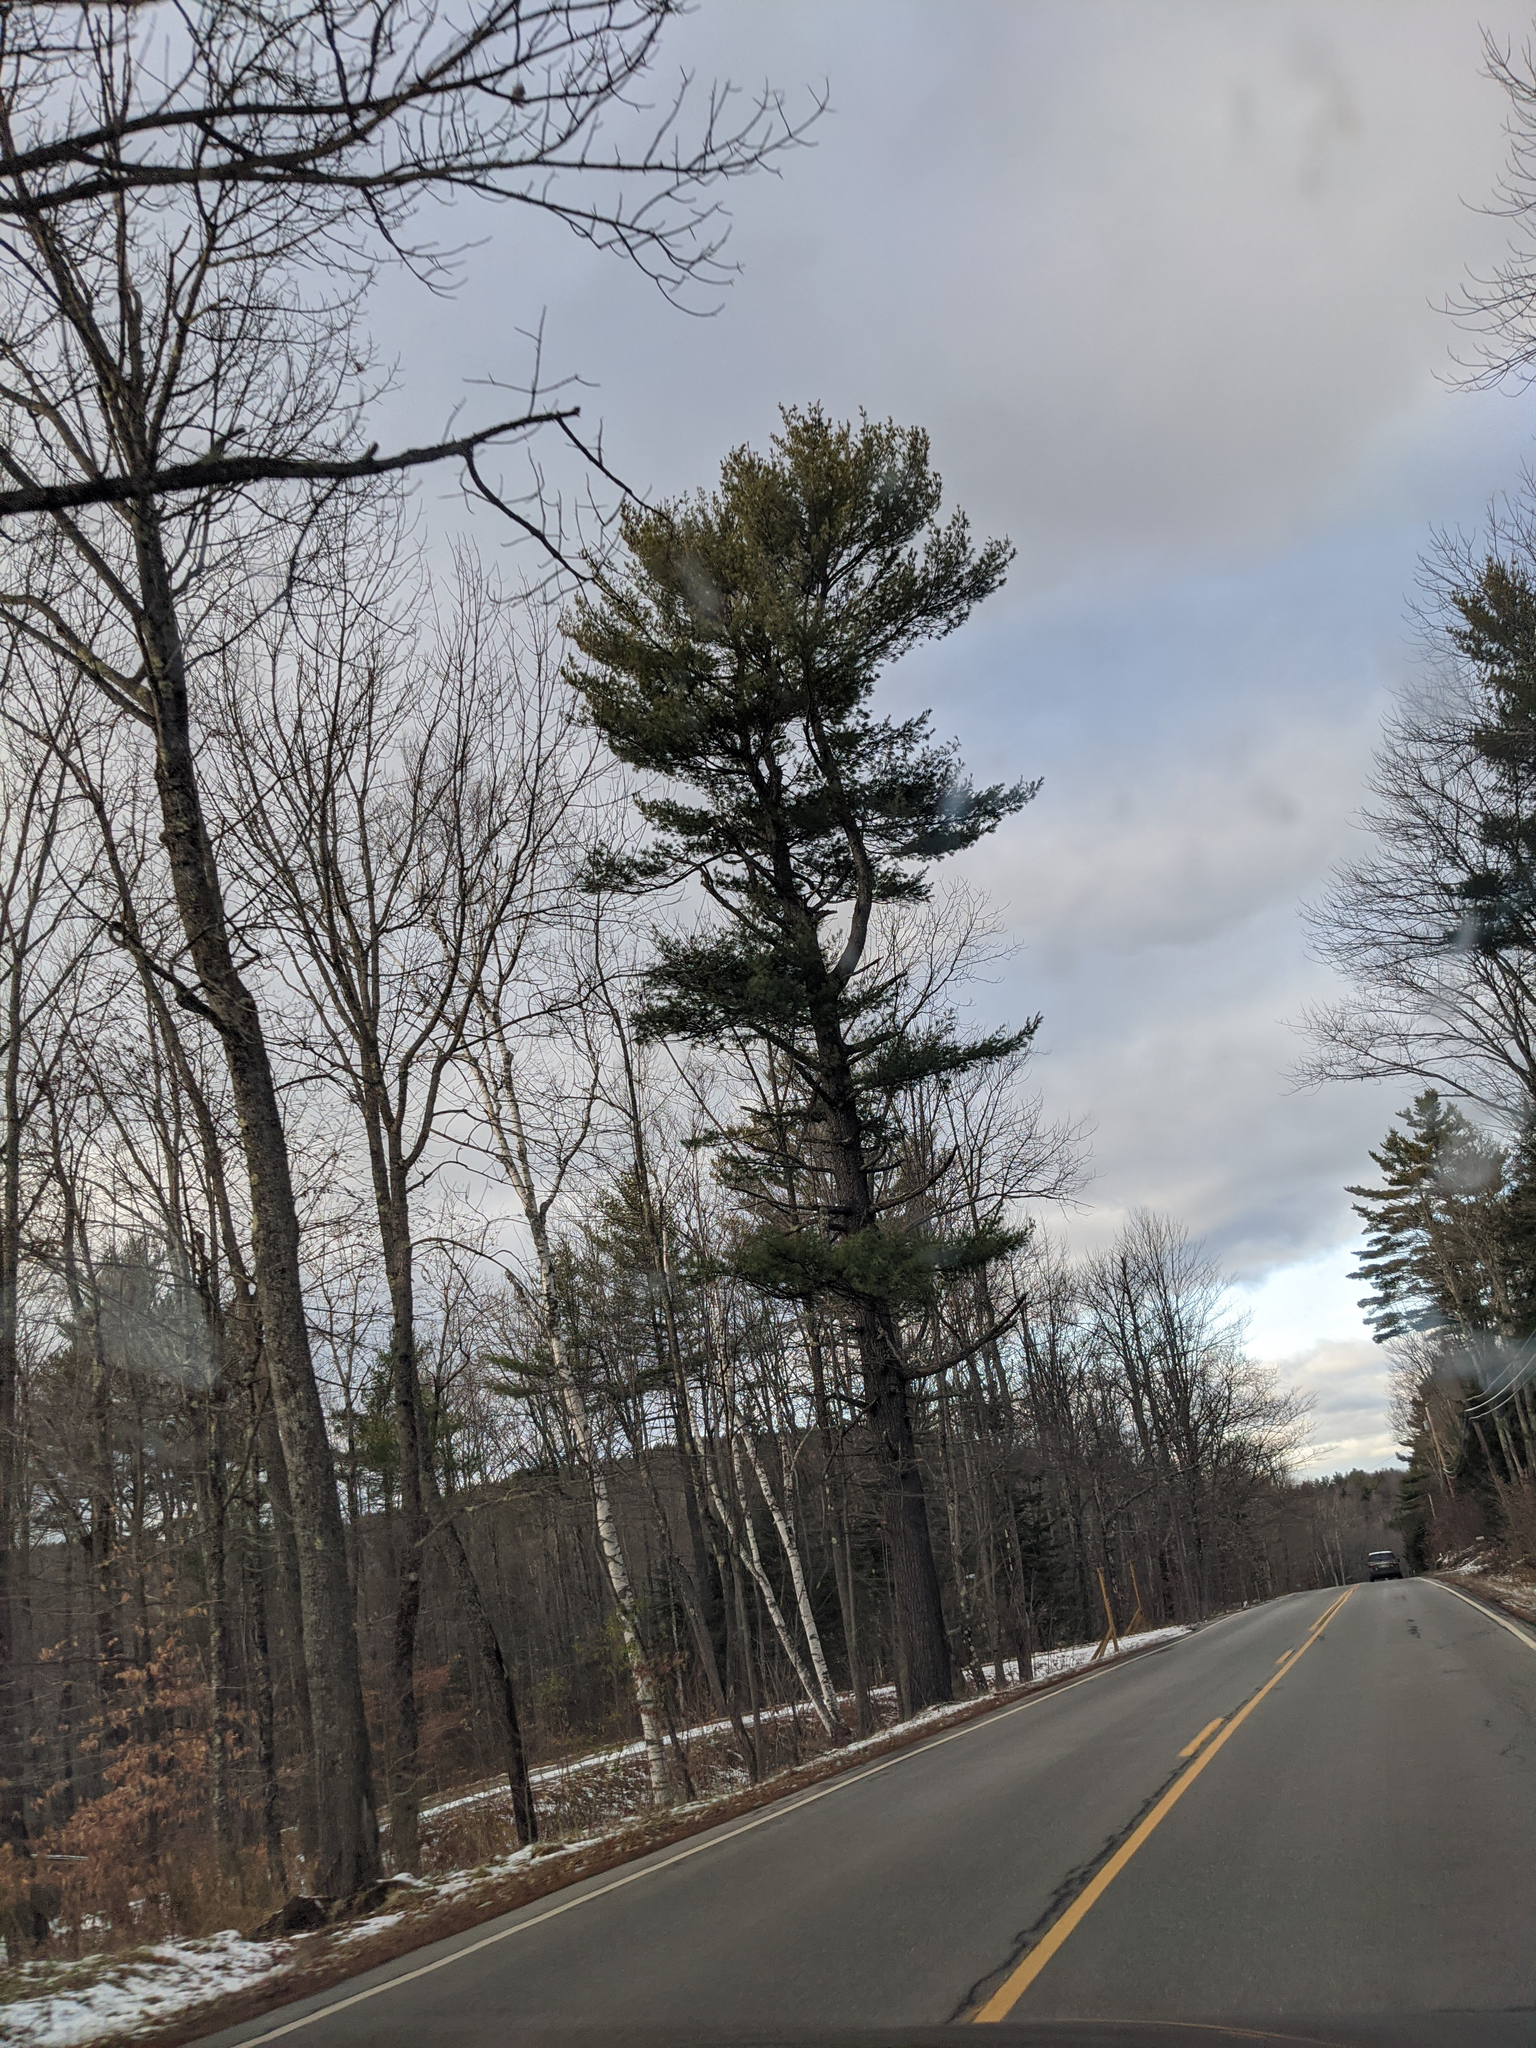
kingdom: Plantae
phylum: Tracheophyta
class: Pinopsida
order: Pinales
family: Pinaceae
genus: Pinus
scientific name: Pinus strobus
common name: Weymouth pine
